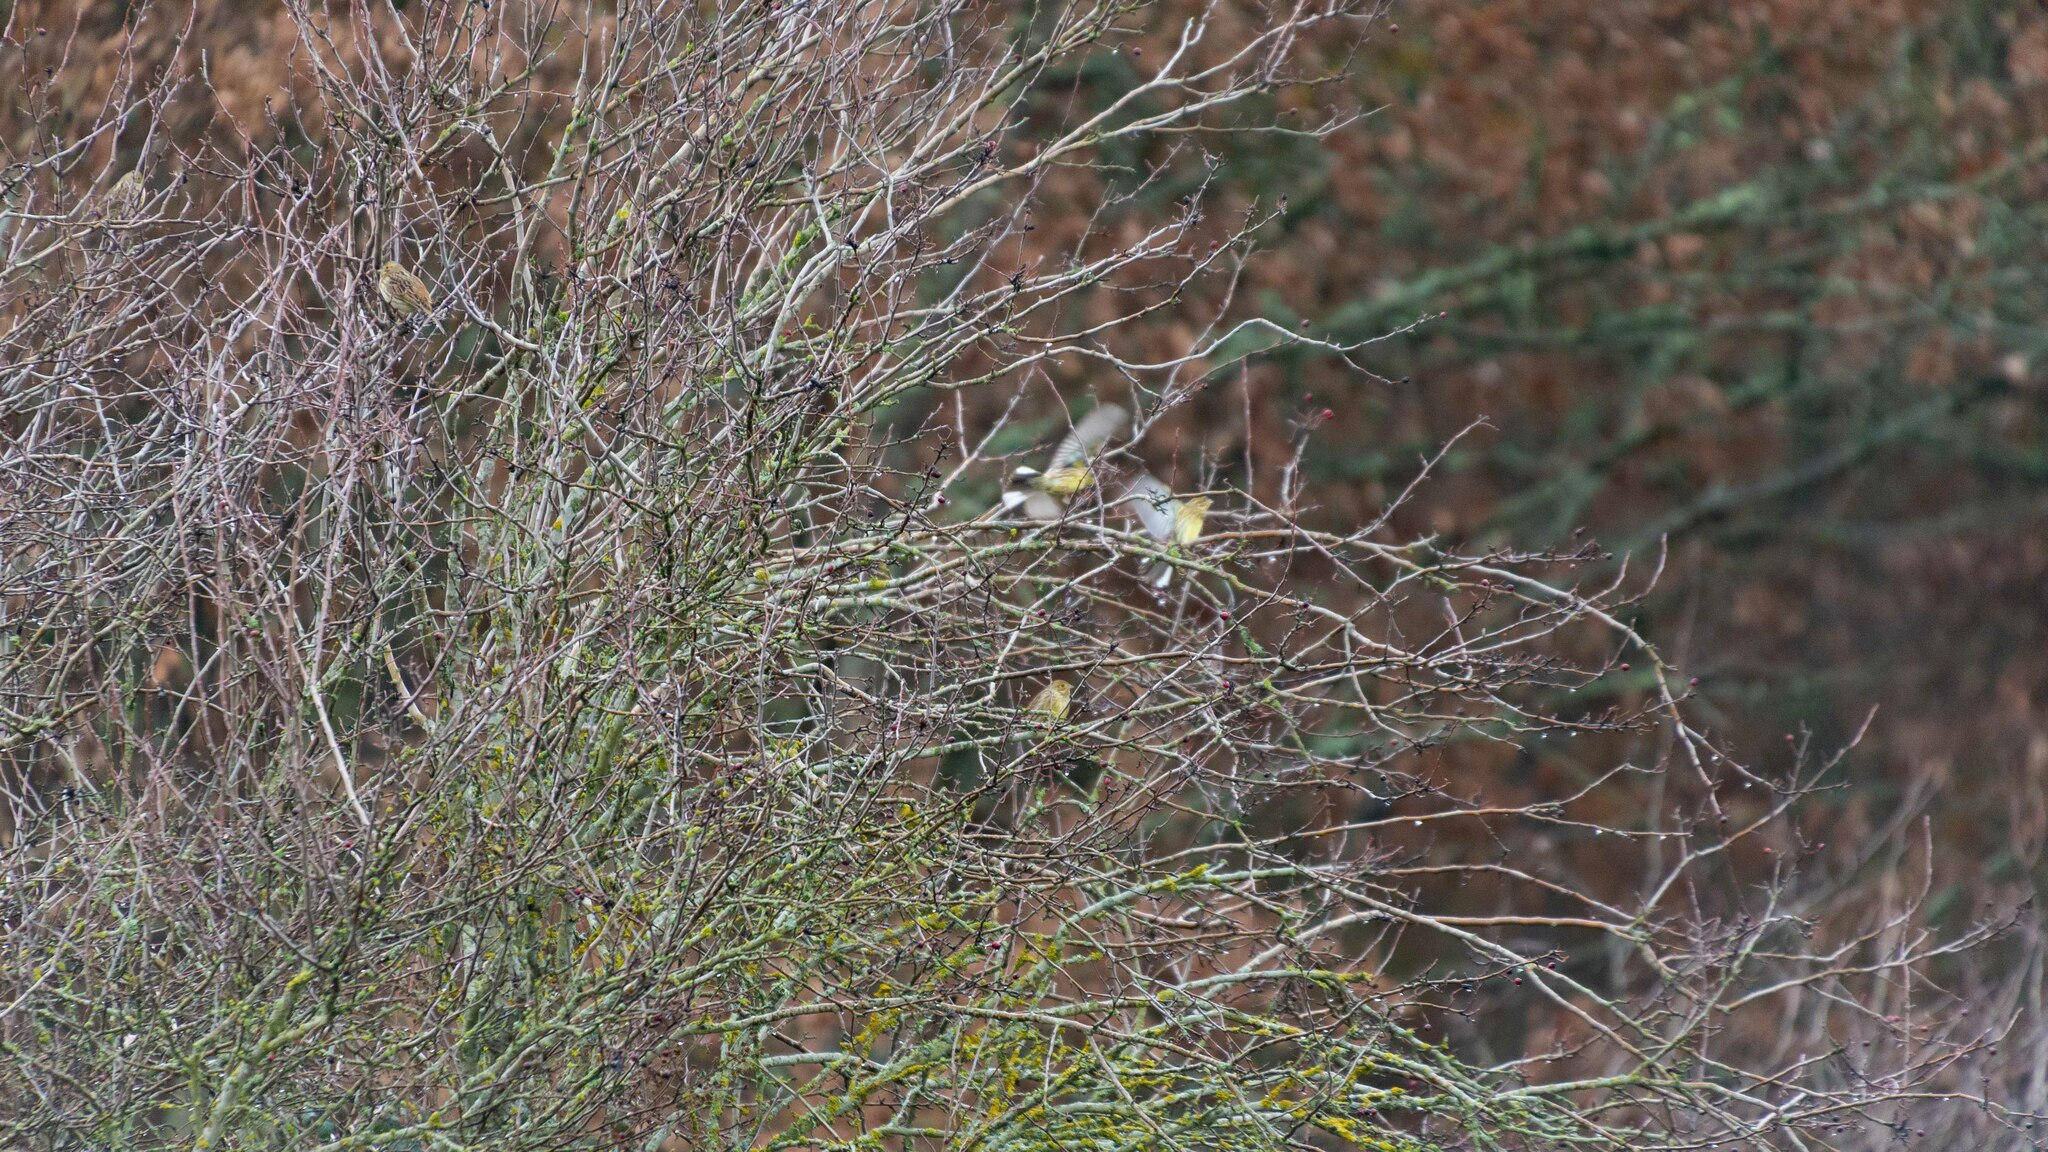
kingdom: Animalia
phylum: Chordata
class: Aves
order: Passeriformes
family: Emberizidae
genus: Emberiza
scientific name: Emberiza citrinella
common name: Yellowhammer
